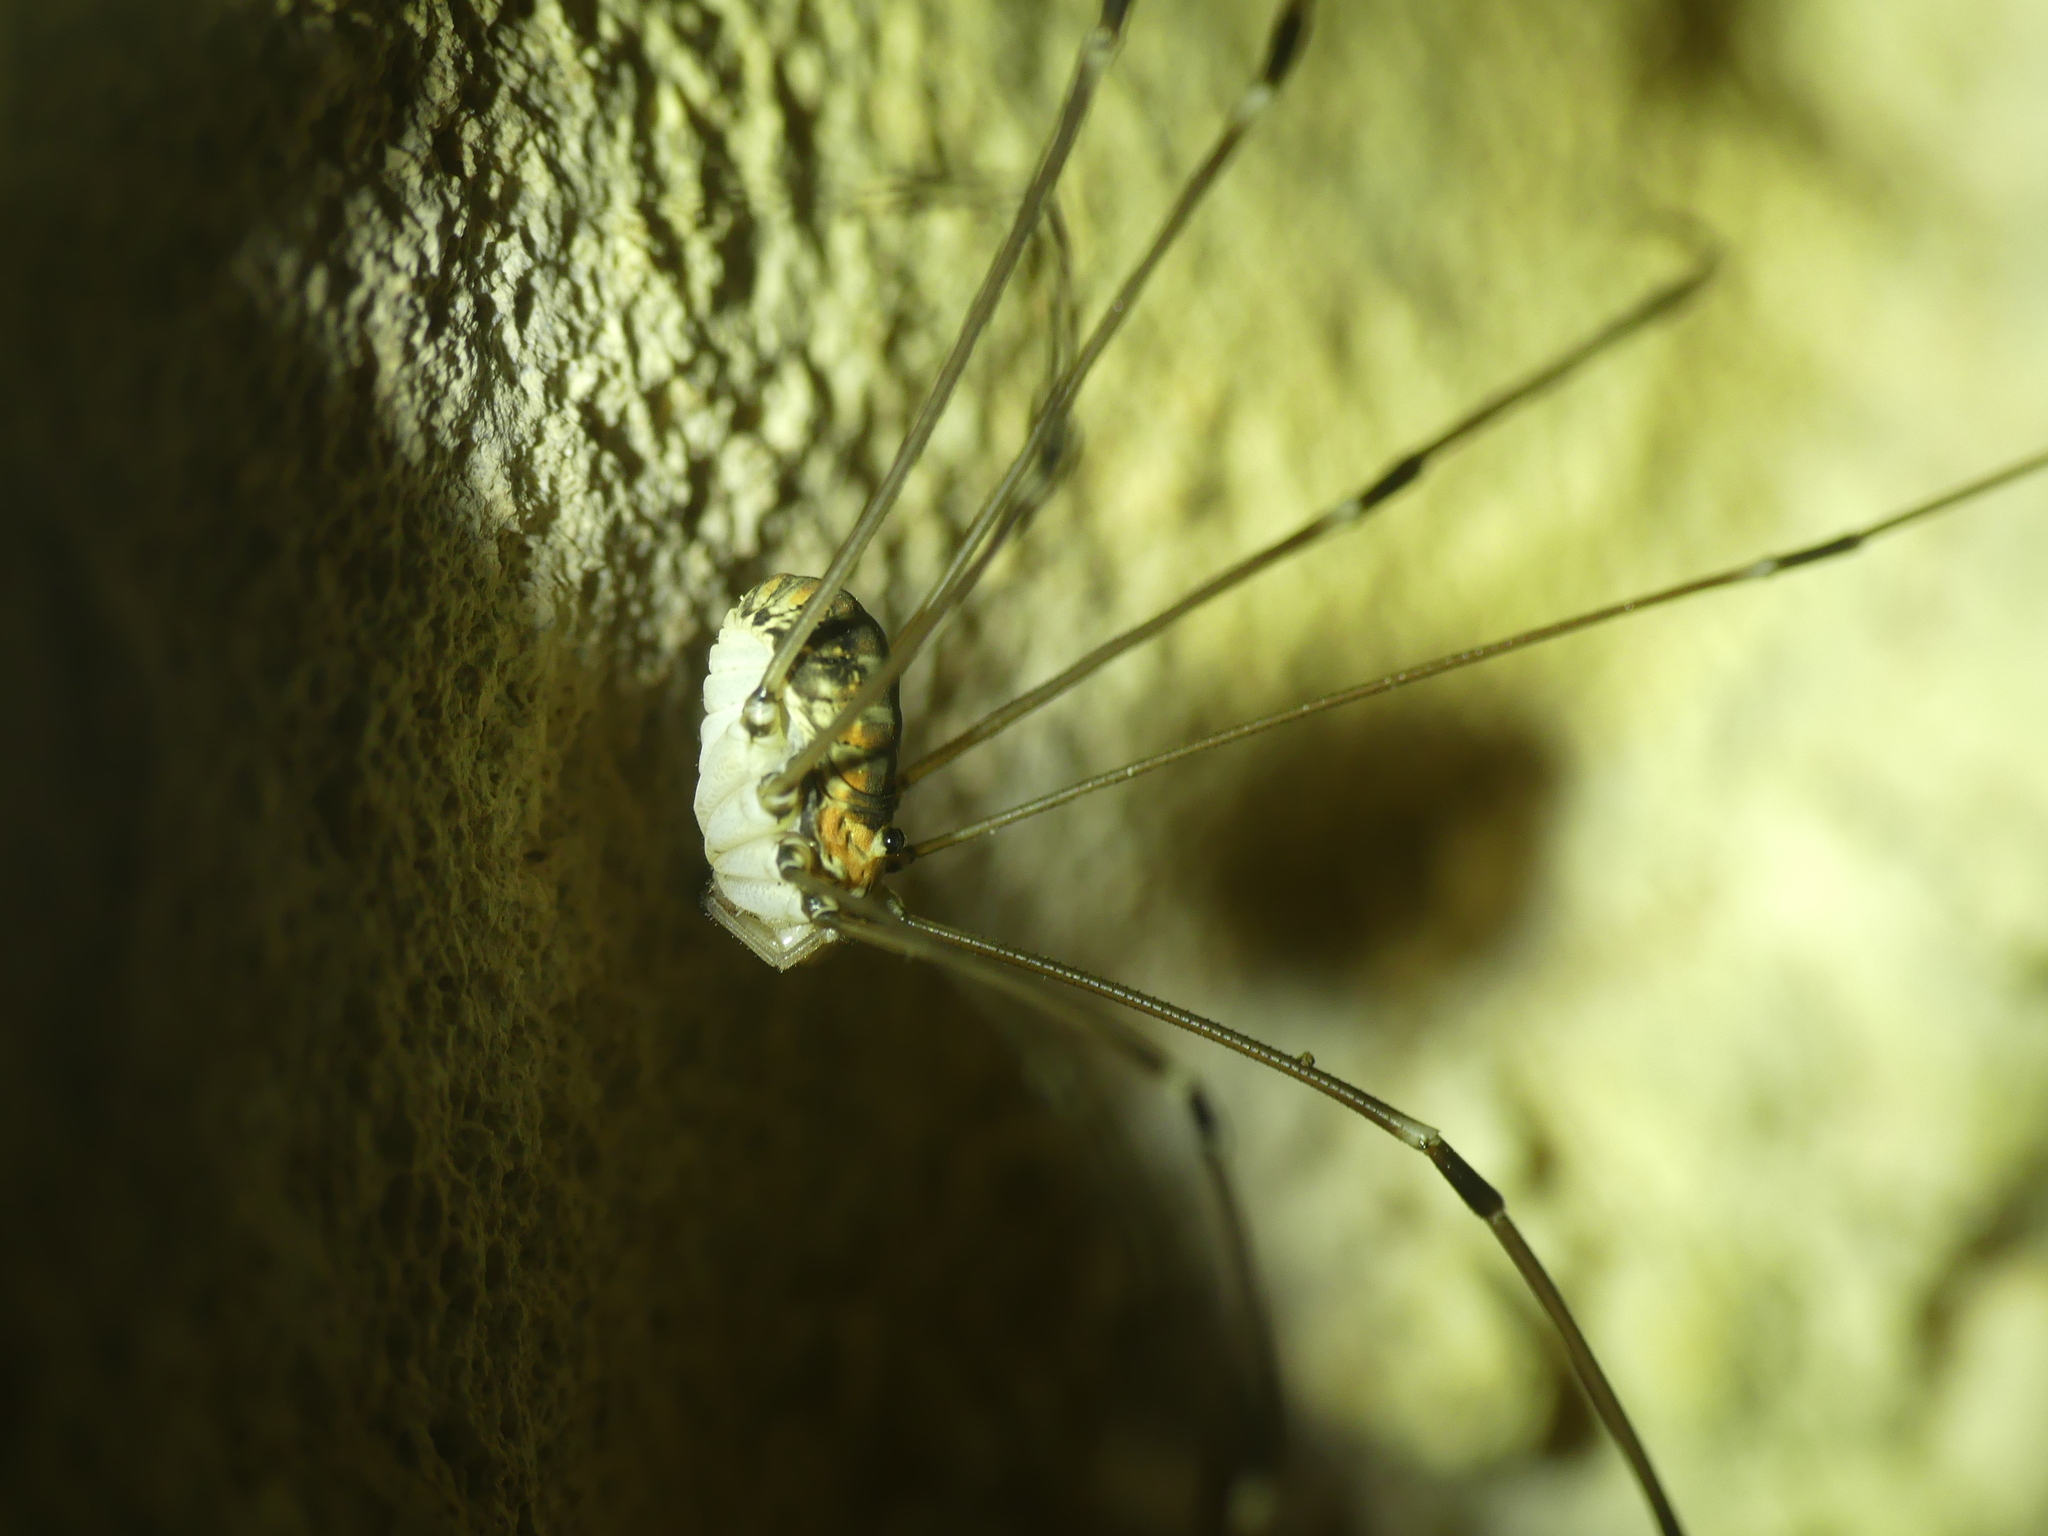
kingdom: Animalia
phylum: Arthropoda
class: Arachnida
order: Opiliones
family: Sclerosomatidae
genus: Leiobunum
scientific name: Leiobunum limbatum
